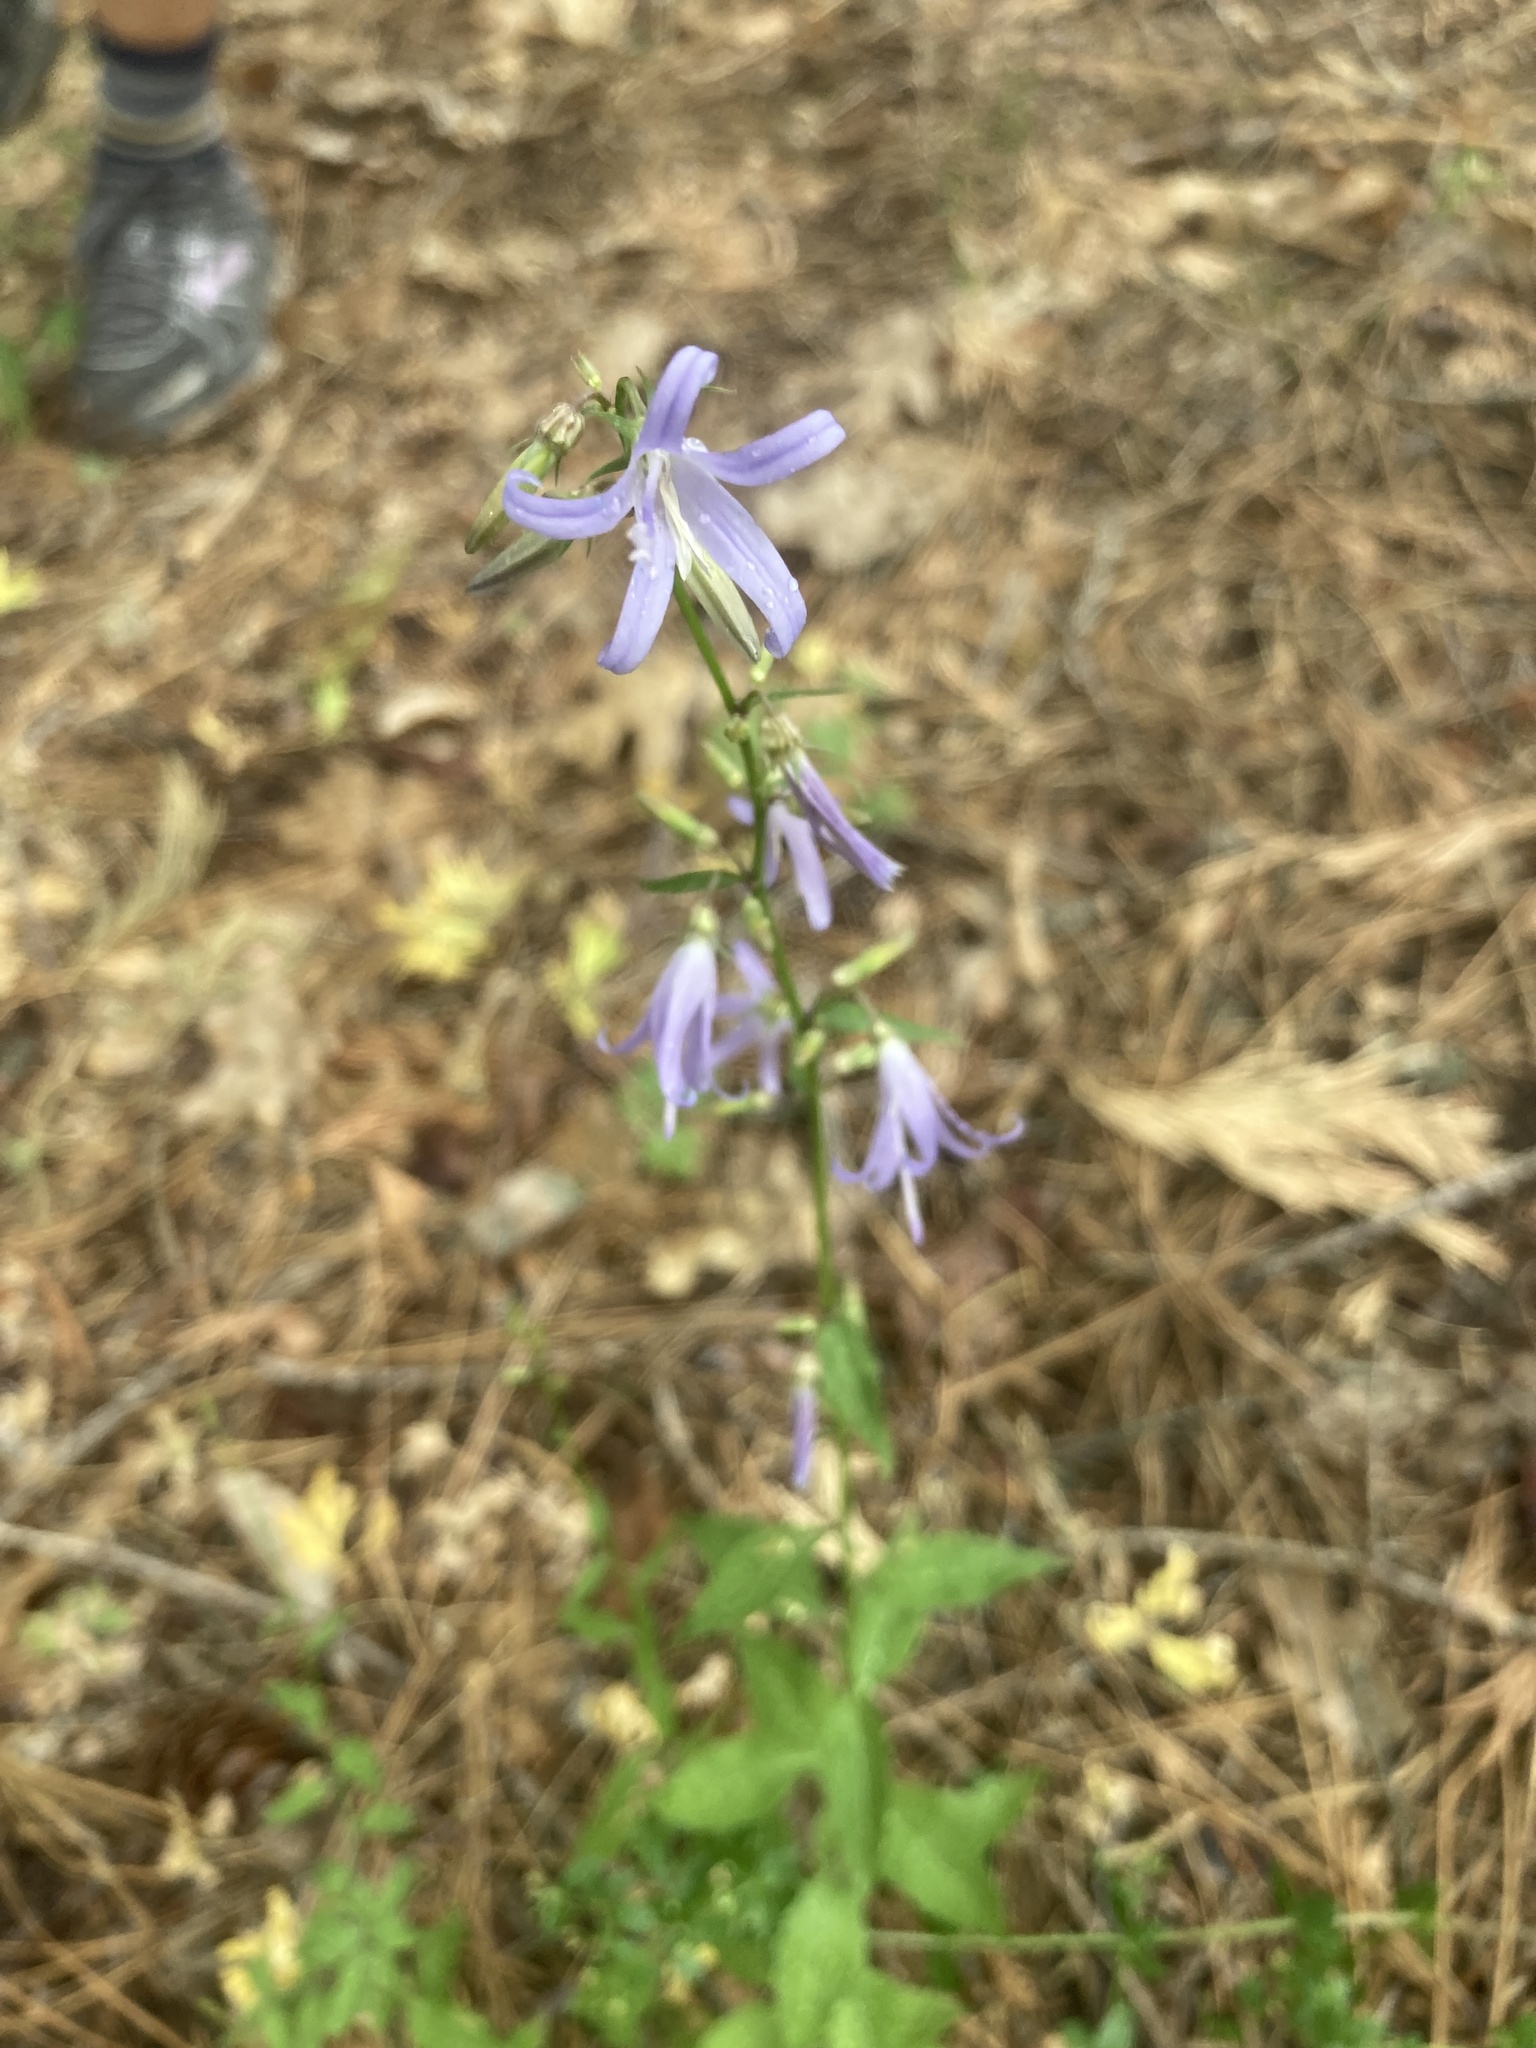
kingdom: Plantae
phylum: Tracheophyta
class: Magnoliopsida
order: Asterales
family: Campanulaceae
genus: Smithiastrum
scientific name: Smithiastrum prenanthoides
